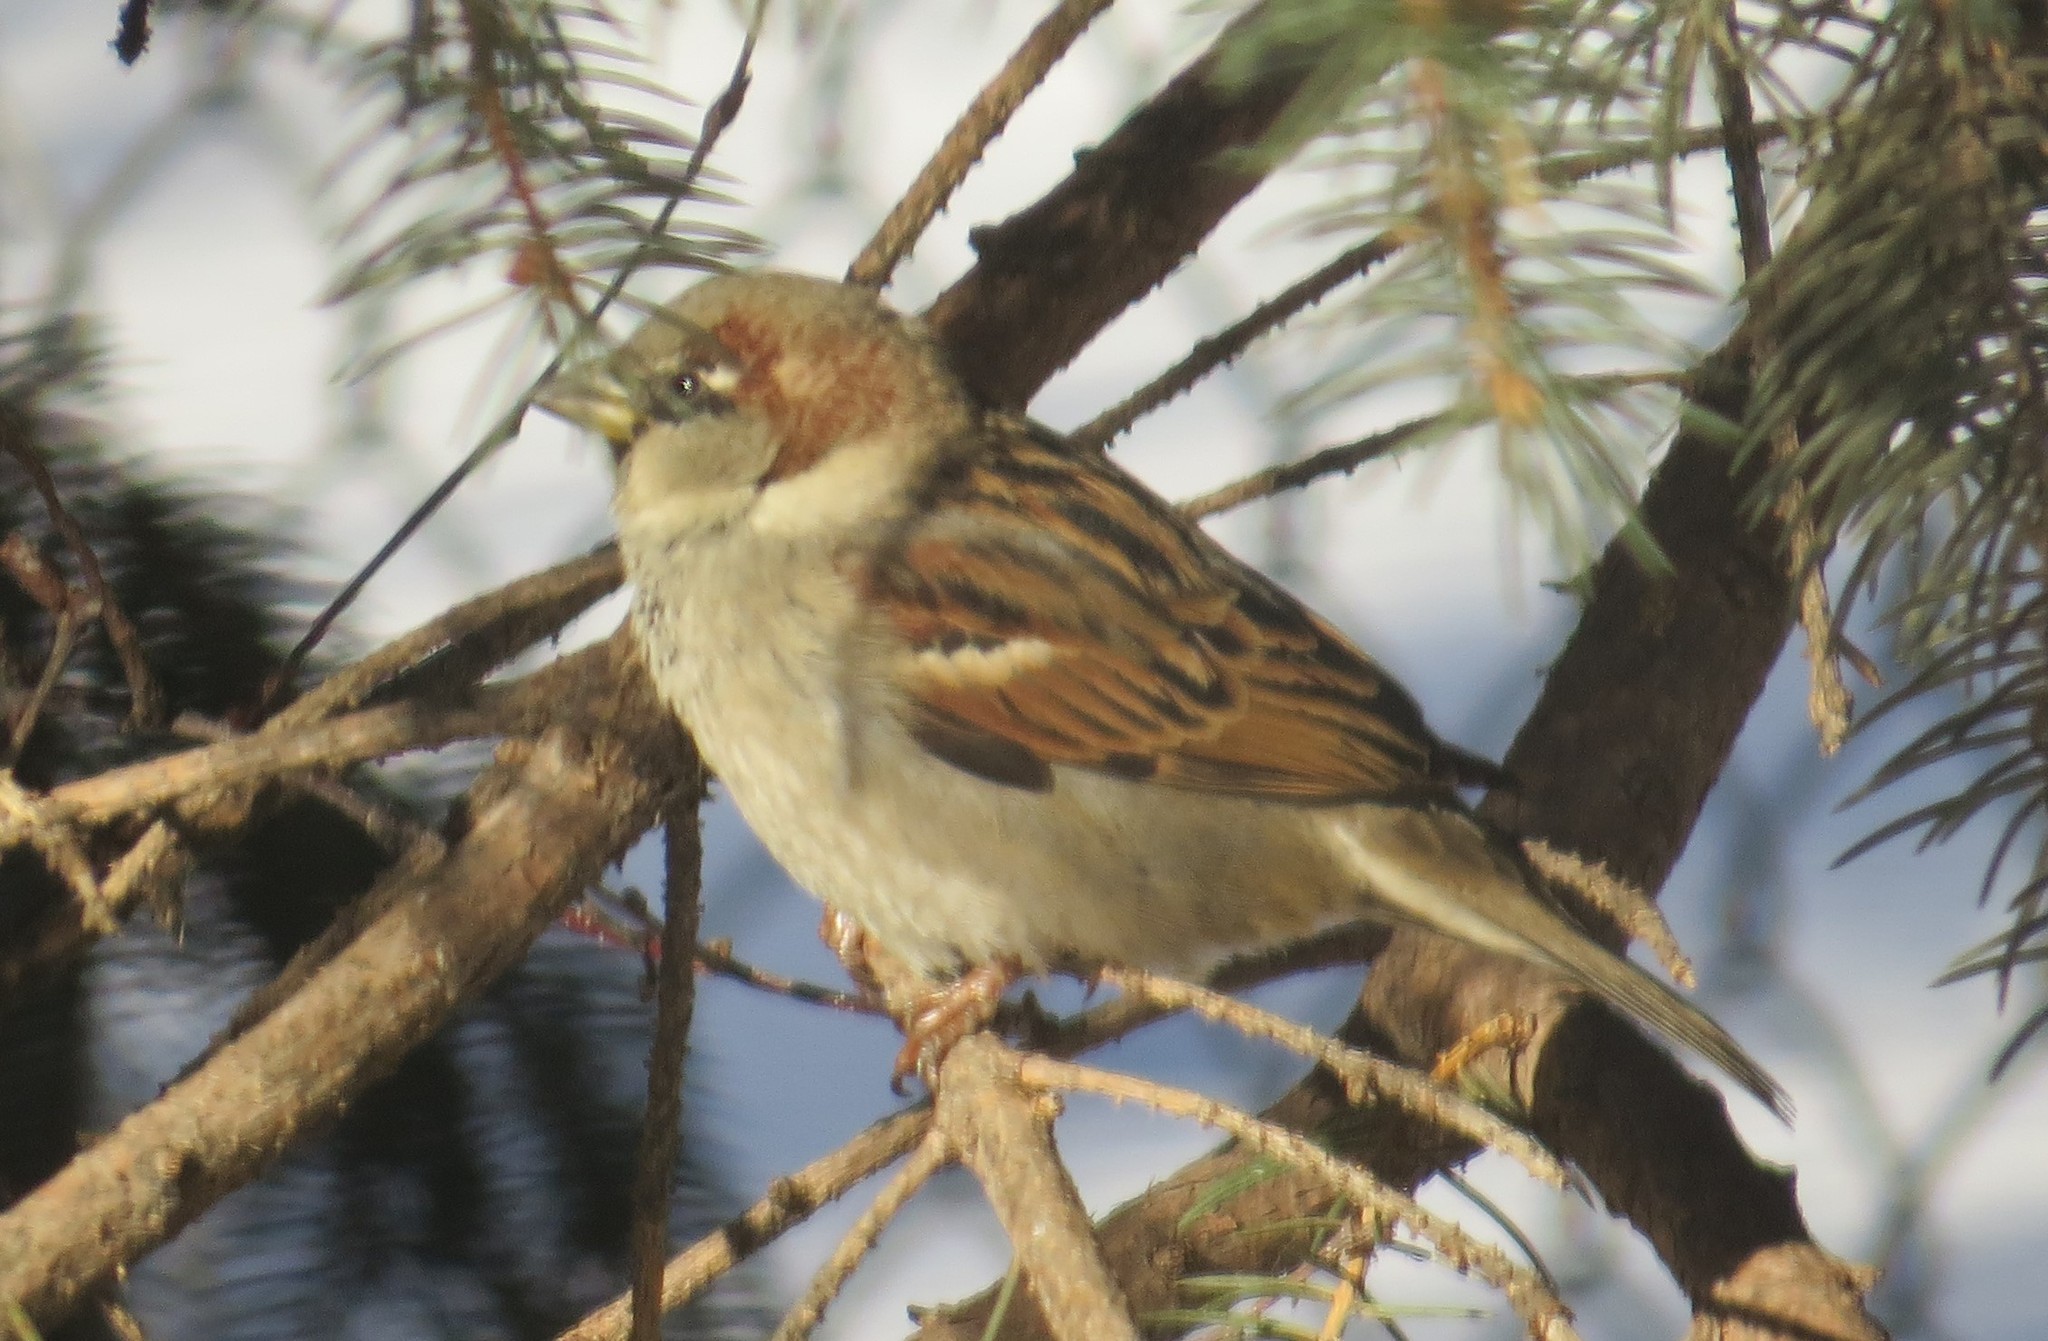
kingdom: Animalia
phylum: Chordata
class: Aves
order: Passeriformes
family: Passeridae
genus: Passer
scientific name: Passer domesticus
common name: House sparrow
